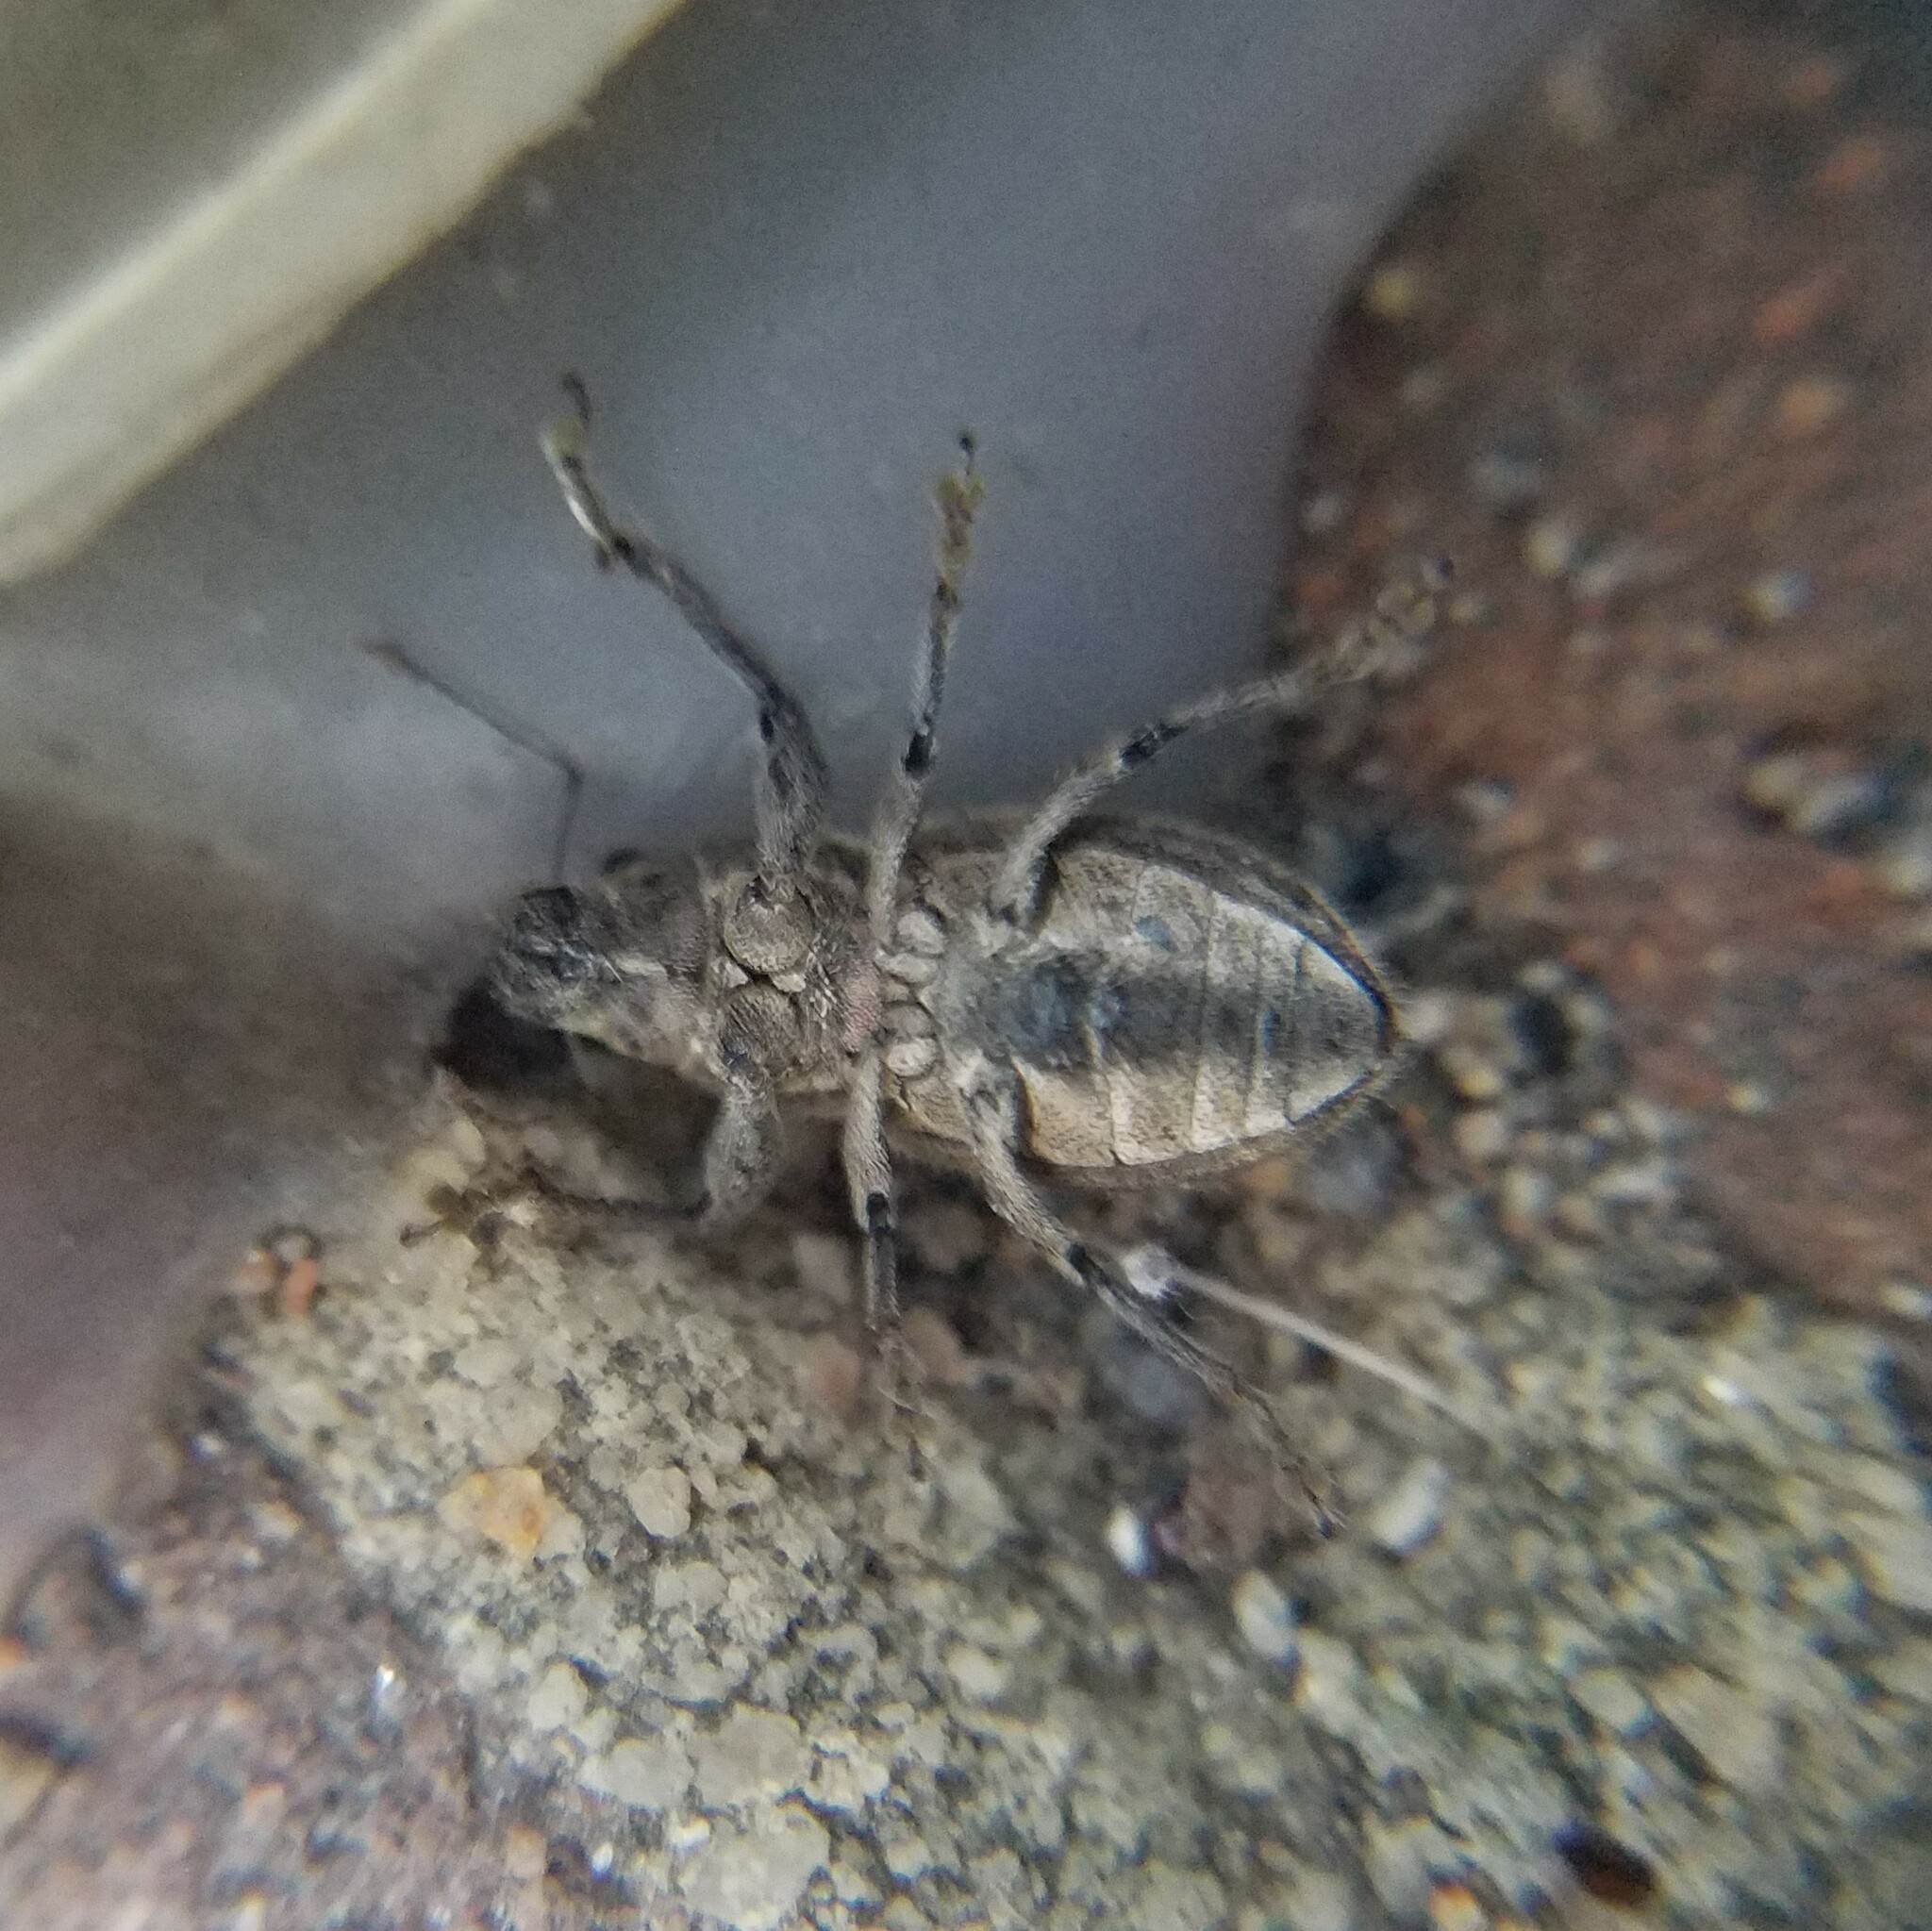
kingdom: Animalia
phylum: Arthropoda
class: Insecta
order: Coleoptera
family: Curculionidae
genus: Naupactus
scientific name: Naupactus peregrinus
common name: Whitefringed beetle
